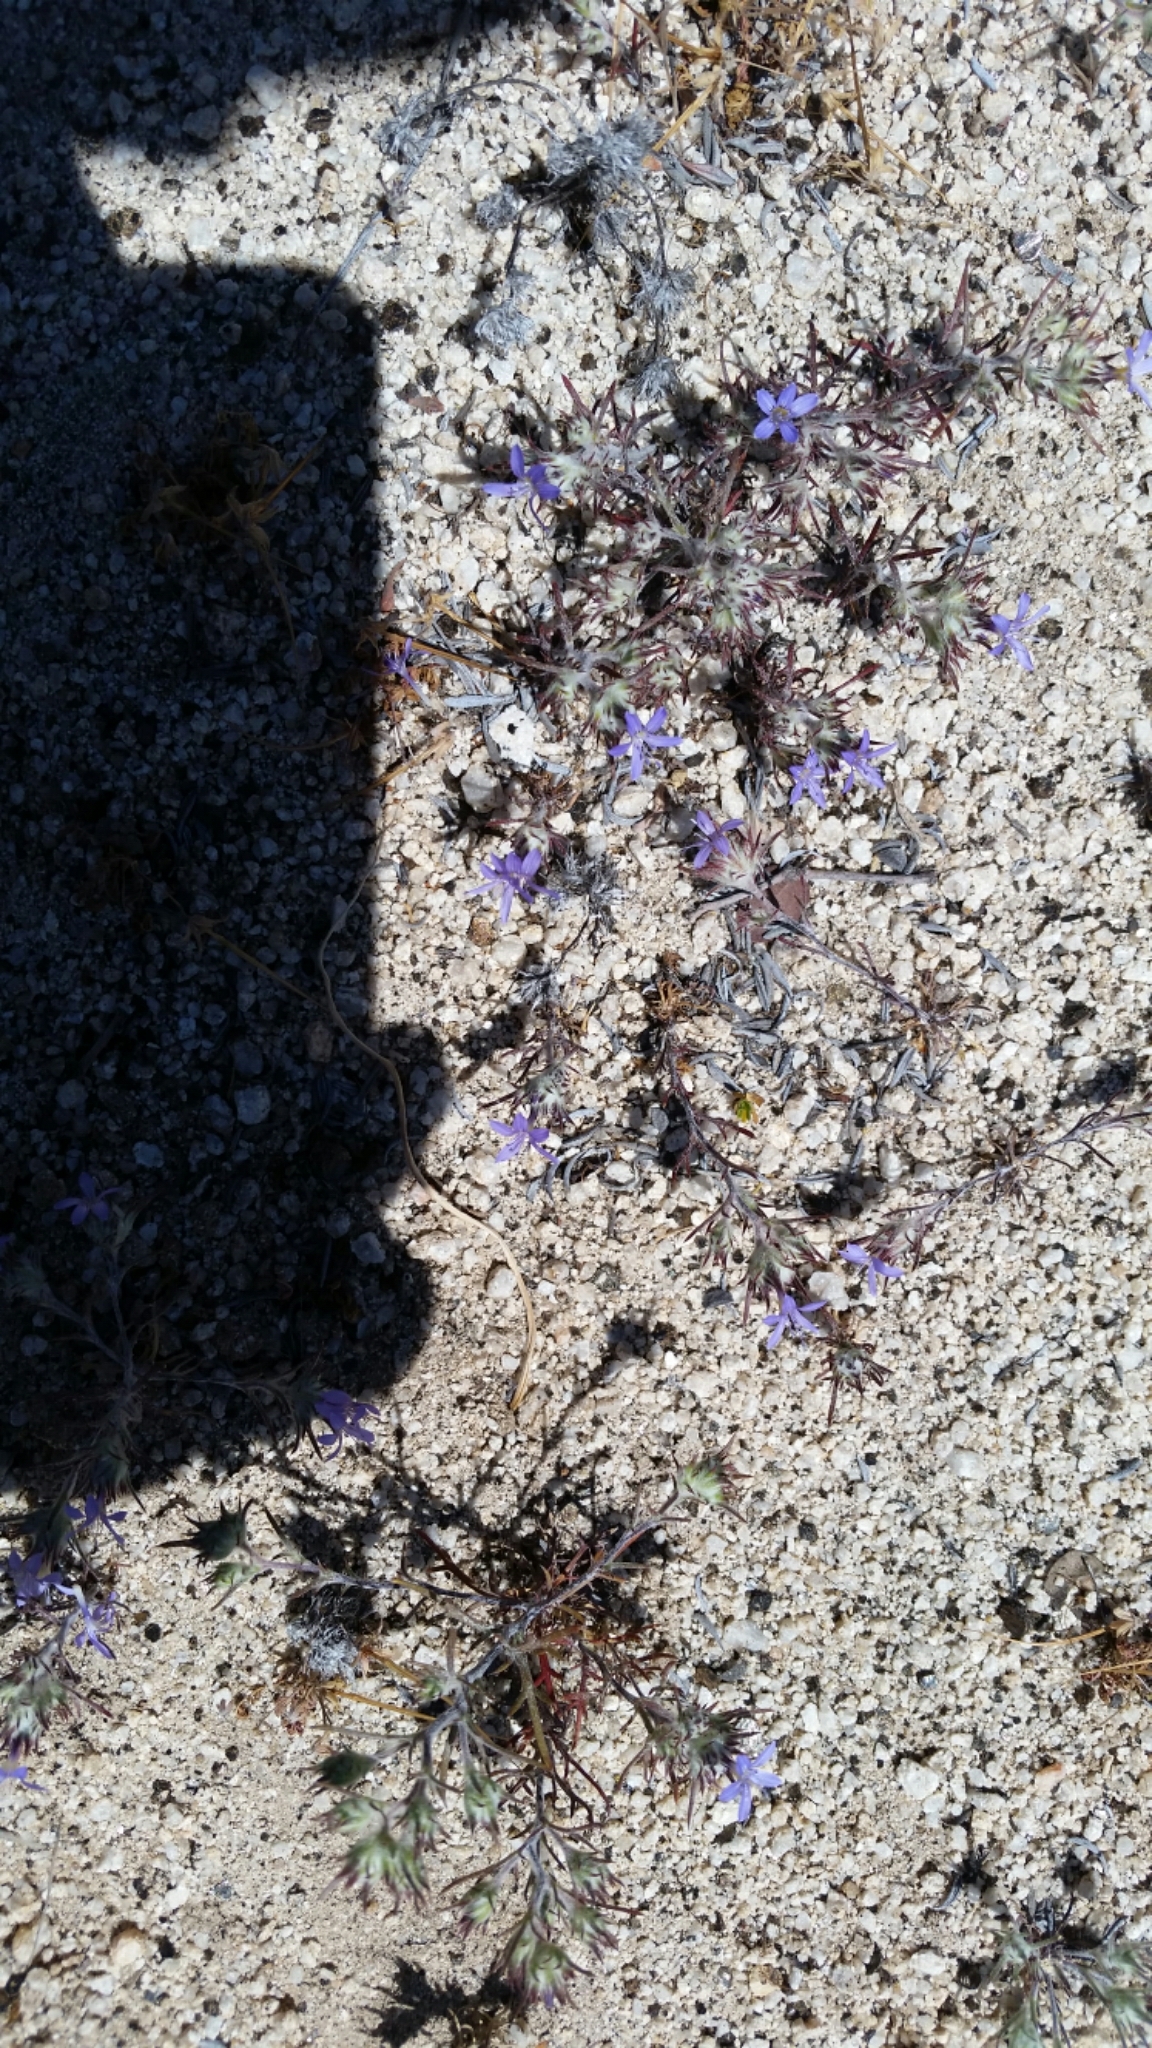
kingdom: Plantae
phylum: Tracheophyta
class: Magnoliopsida
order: Ericales
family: Polemoniaceae
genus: Eriastrum
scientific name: Eriastrum eremicum
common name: Desert eriastrum
